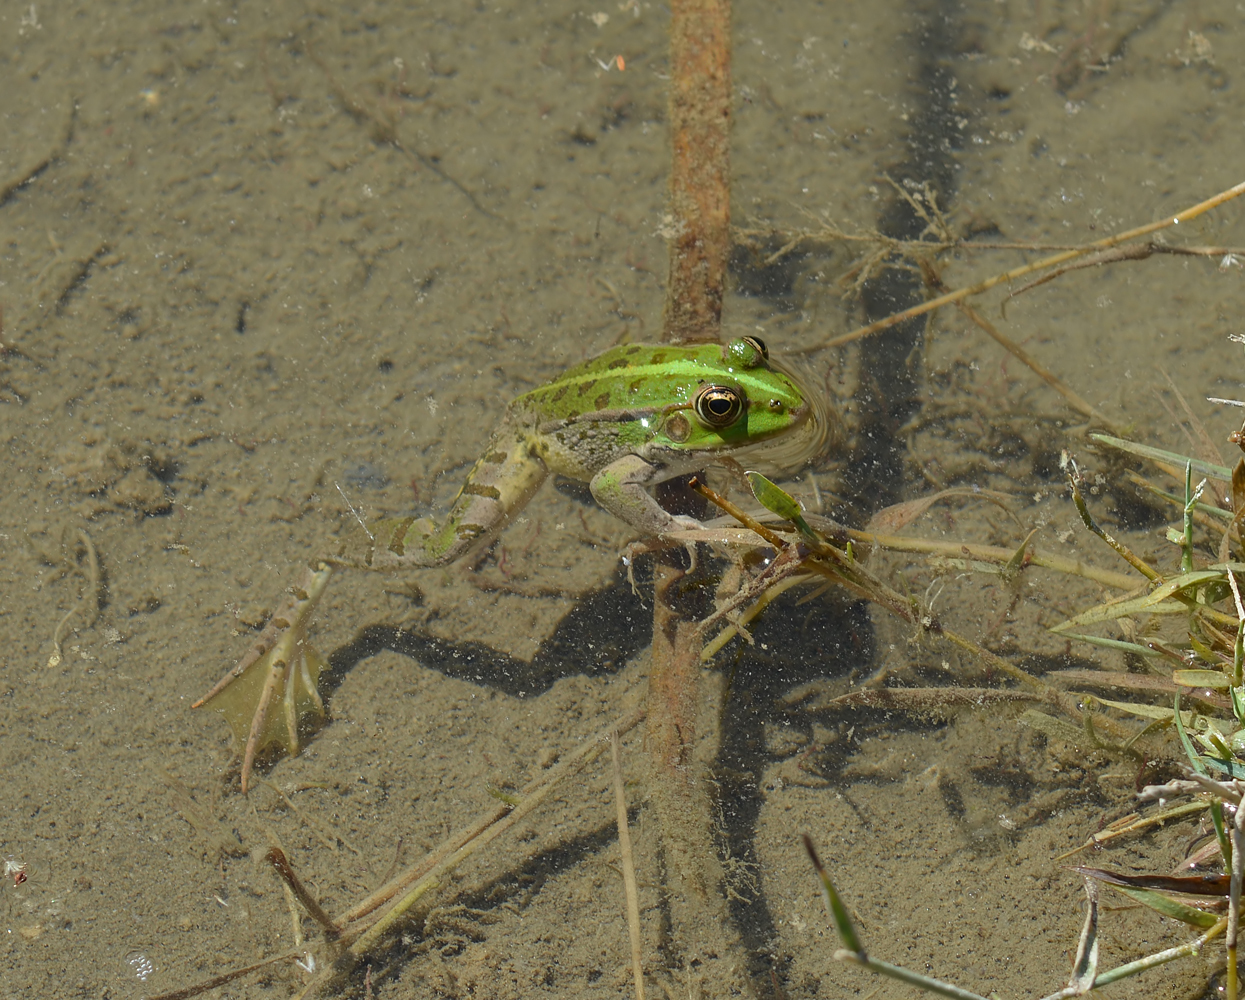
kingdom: Animalia
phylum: Chordata
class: Amphibia
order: Anura
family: Ranidae
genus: Pelophylax
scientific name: Pelophylax ridibundus
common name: Marsh frog
